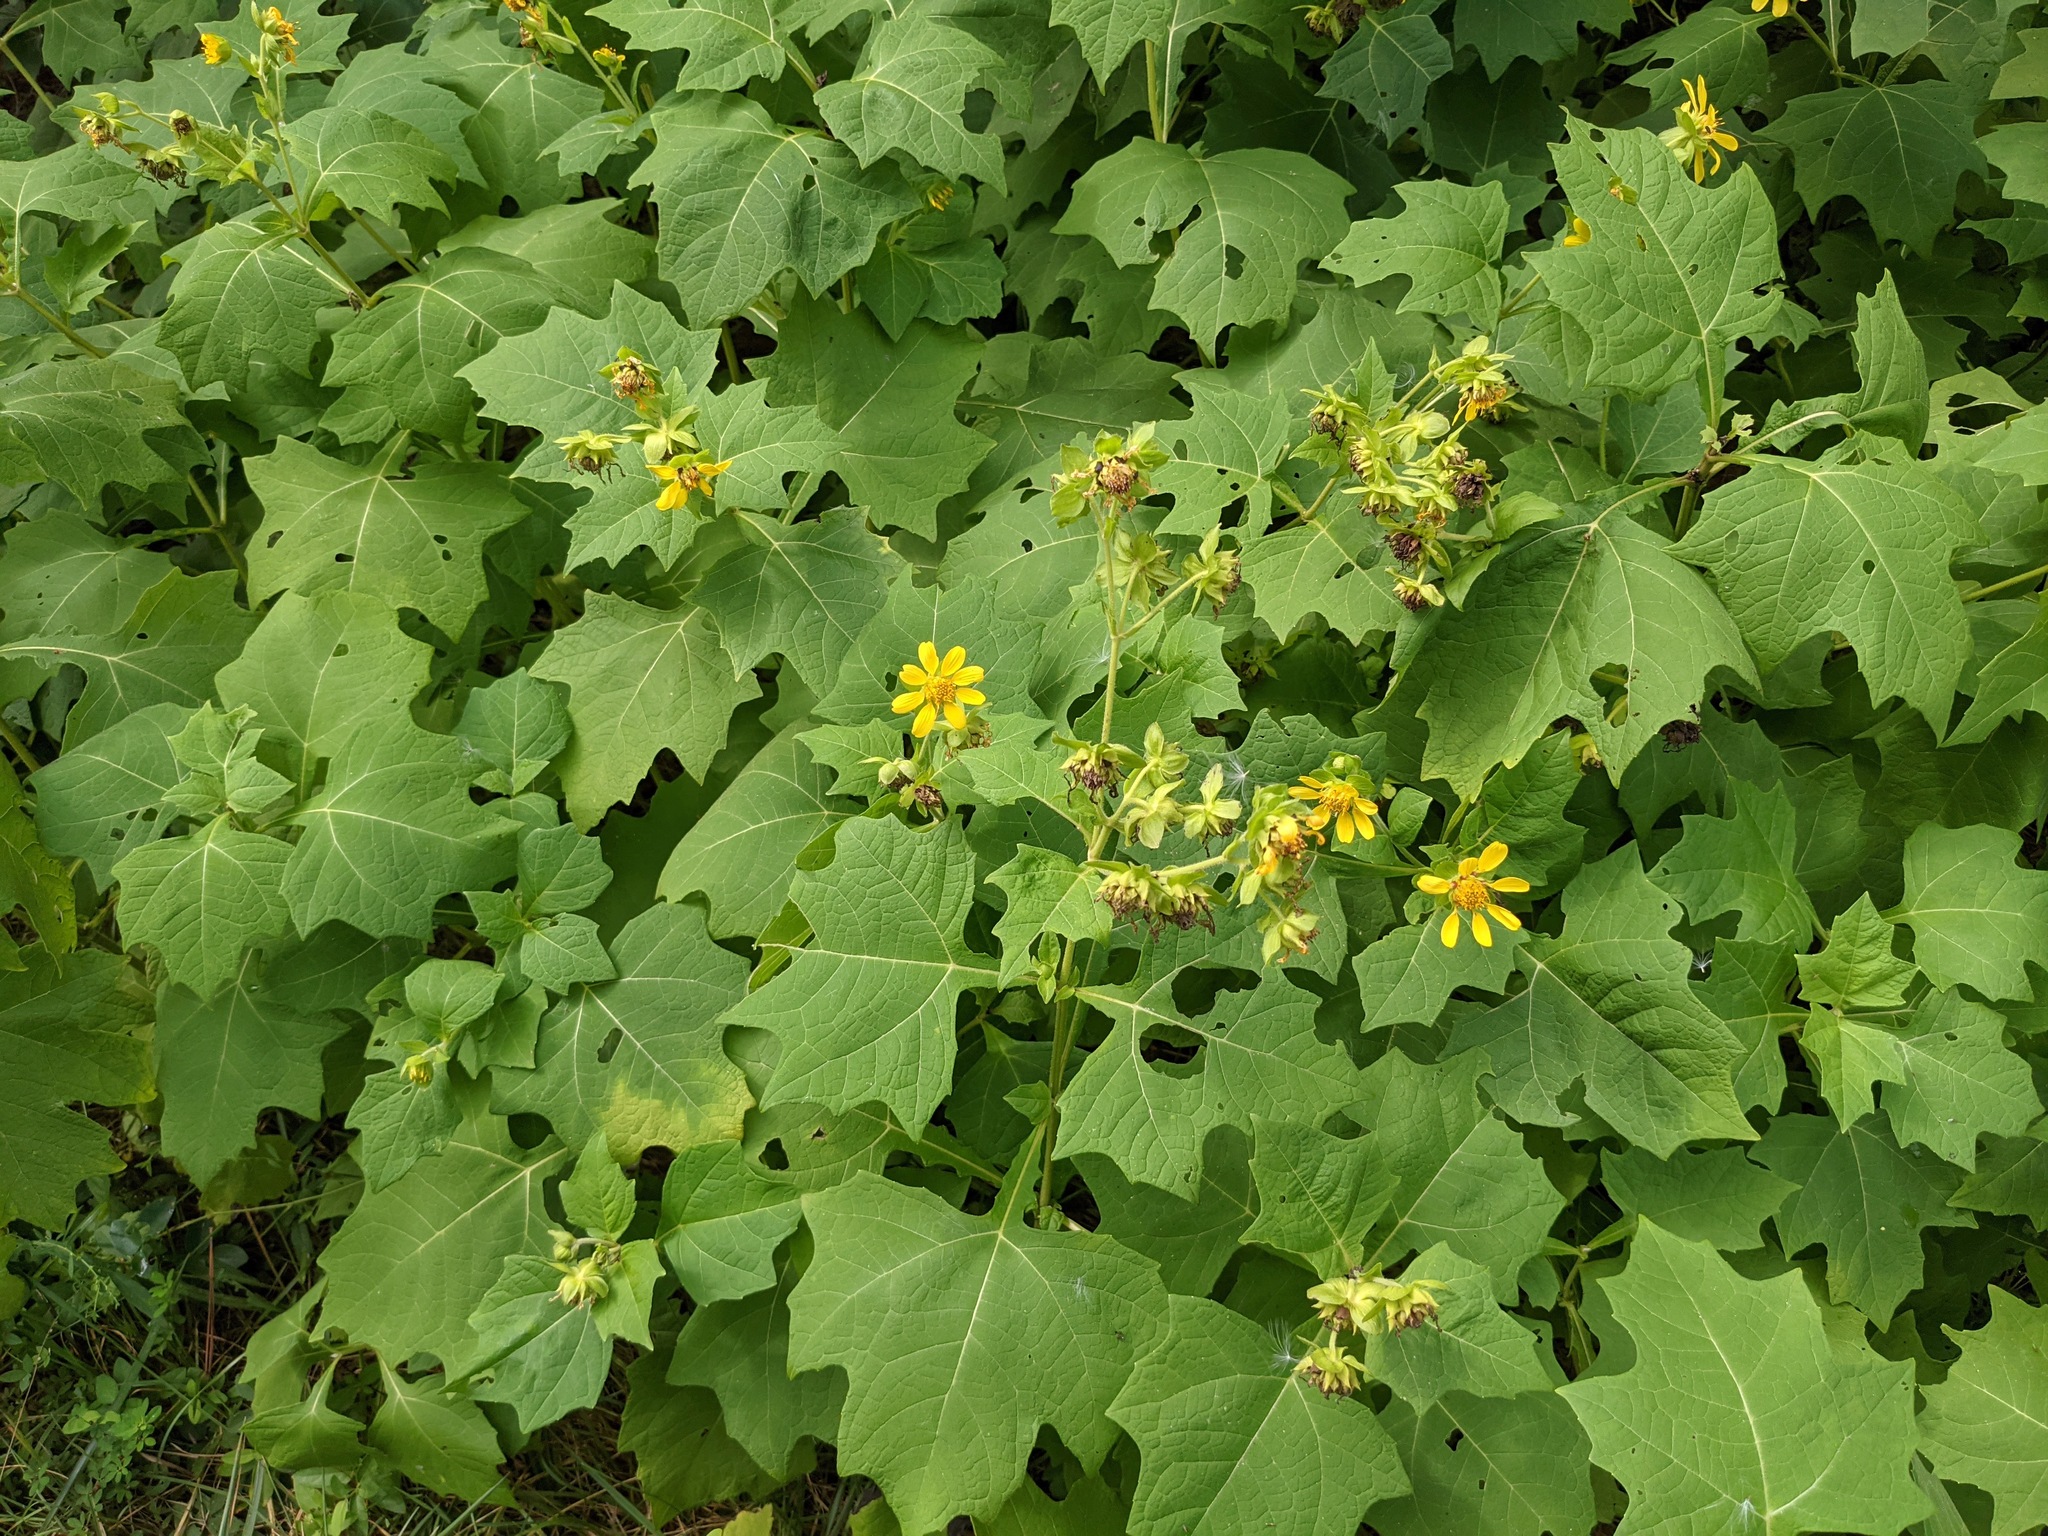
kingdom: Plantae
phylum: Tracheophyta
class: Magnoliopsida
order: Asterales
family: Asteraceae
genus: Smallanthus
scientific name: Smallanthus uvedalia
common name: Bear's-foot
